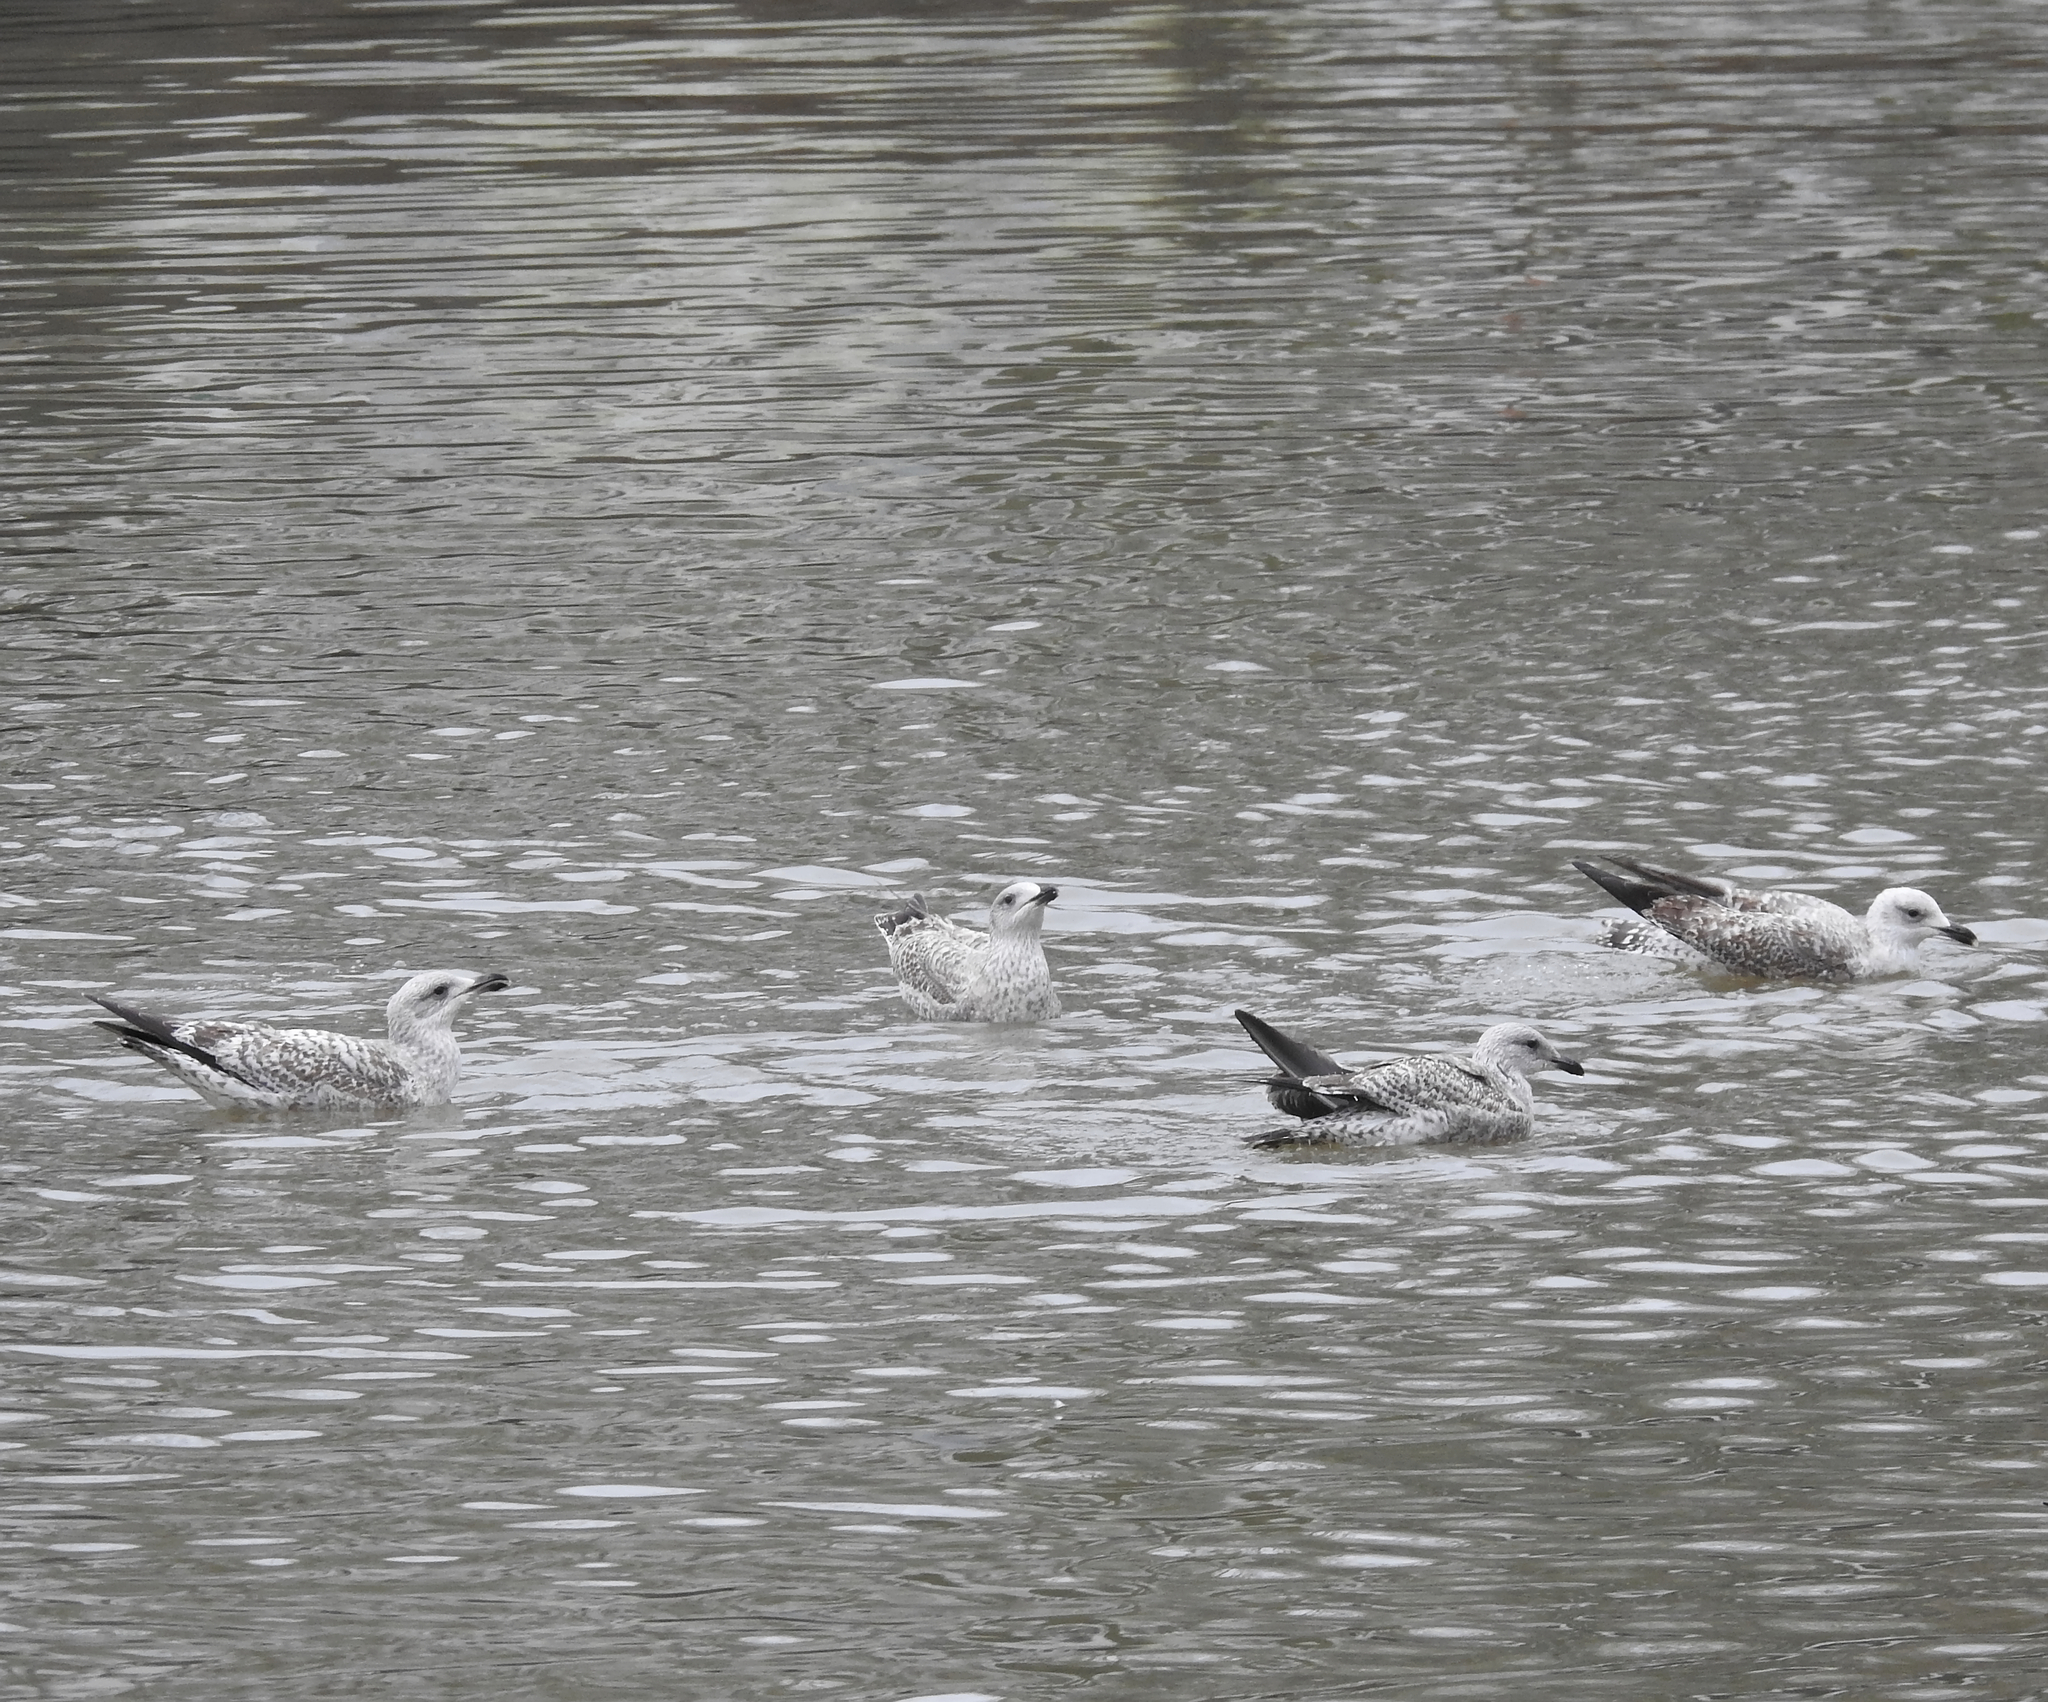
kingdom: Animalia
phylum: Chordata
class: Aves
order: Charadriiformes
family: Laridae
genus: Larus
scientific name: Larus argentatus
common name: Herring gull
